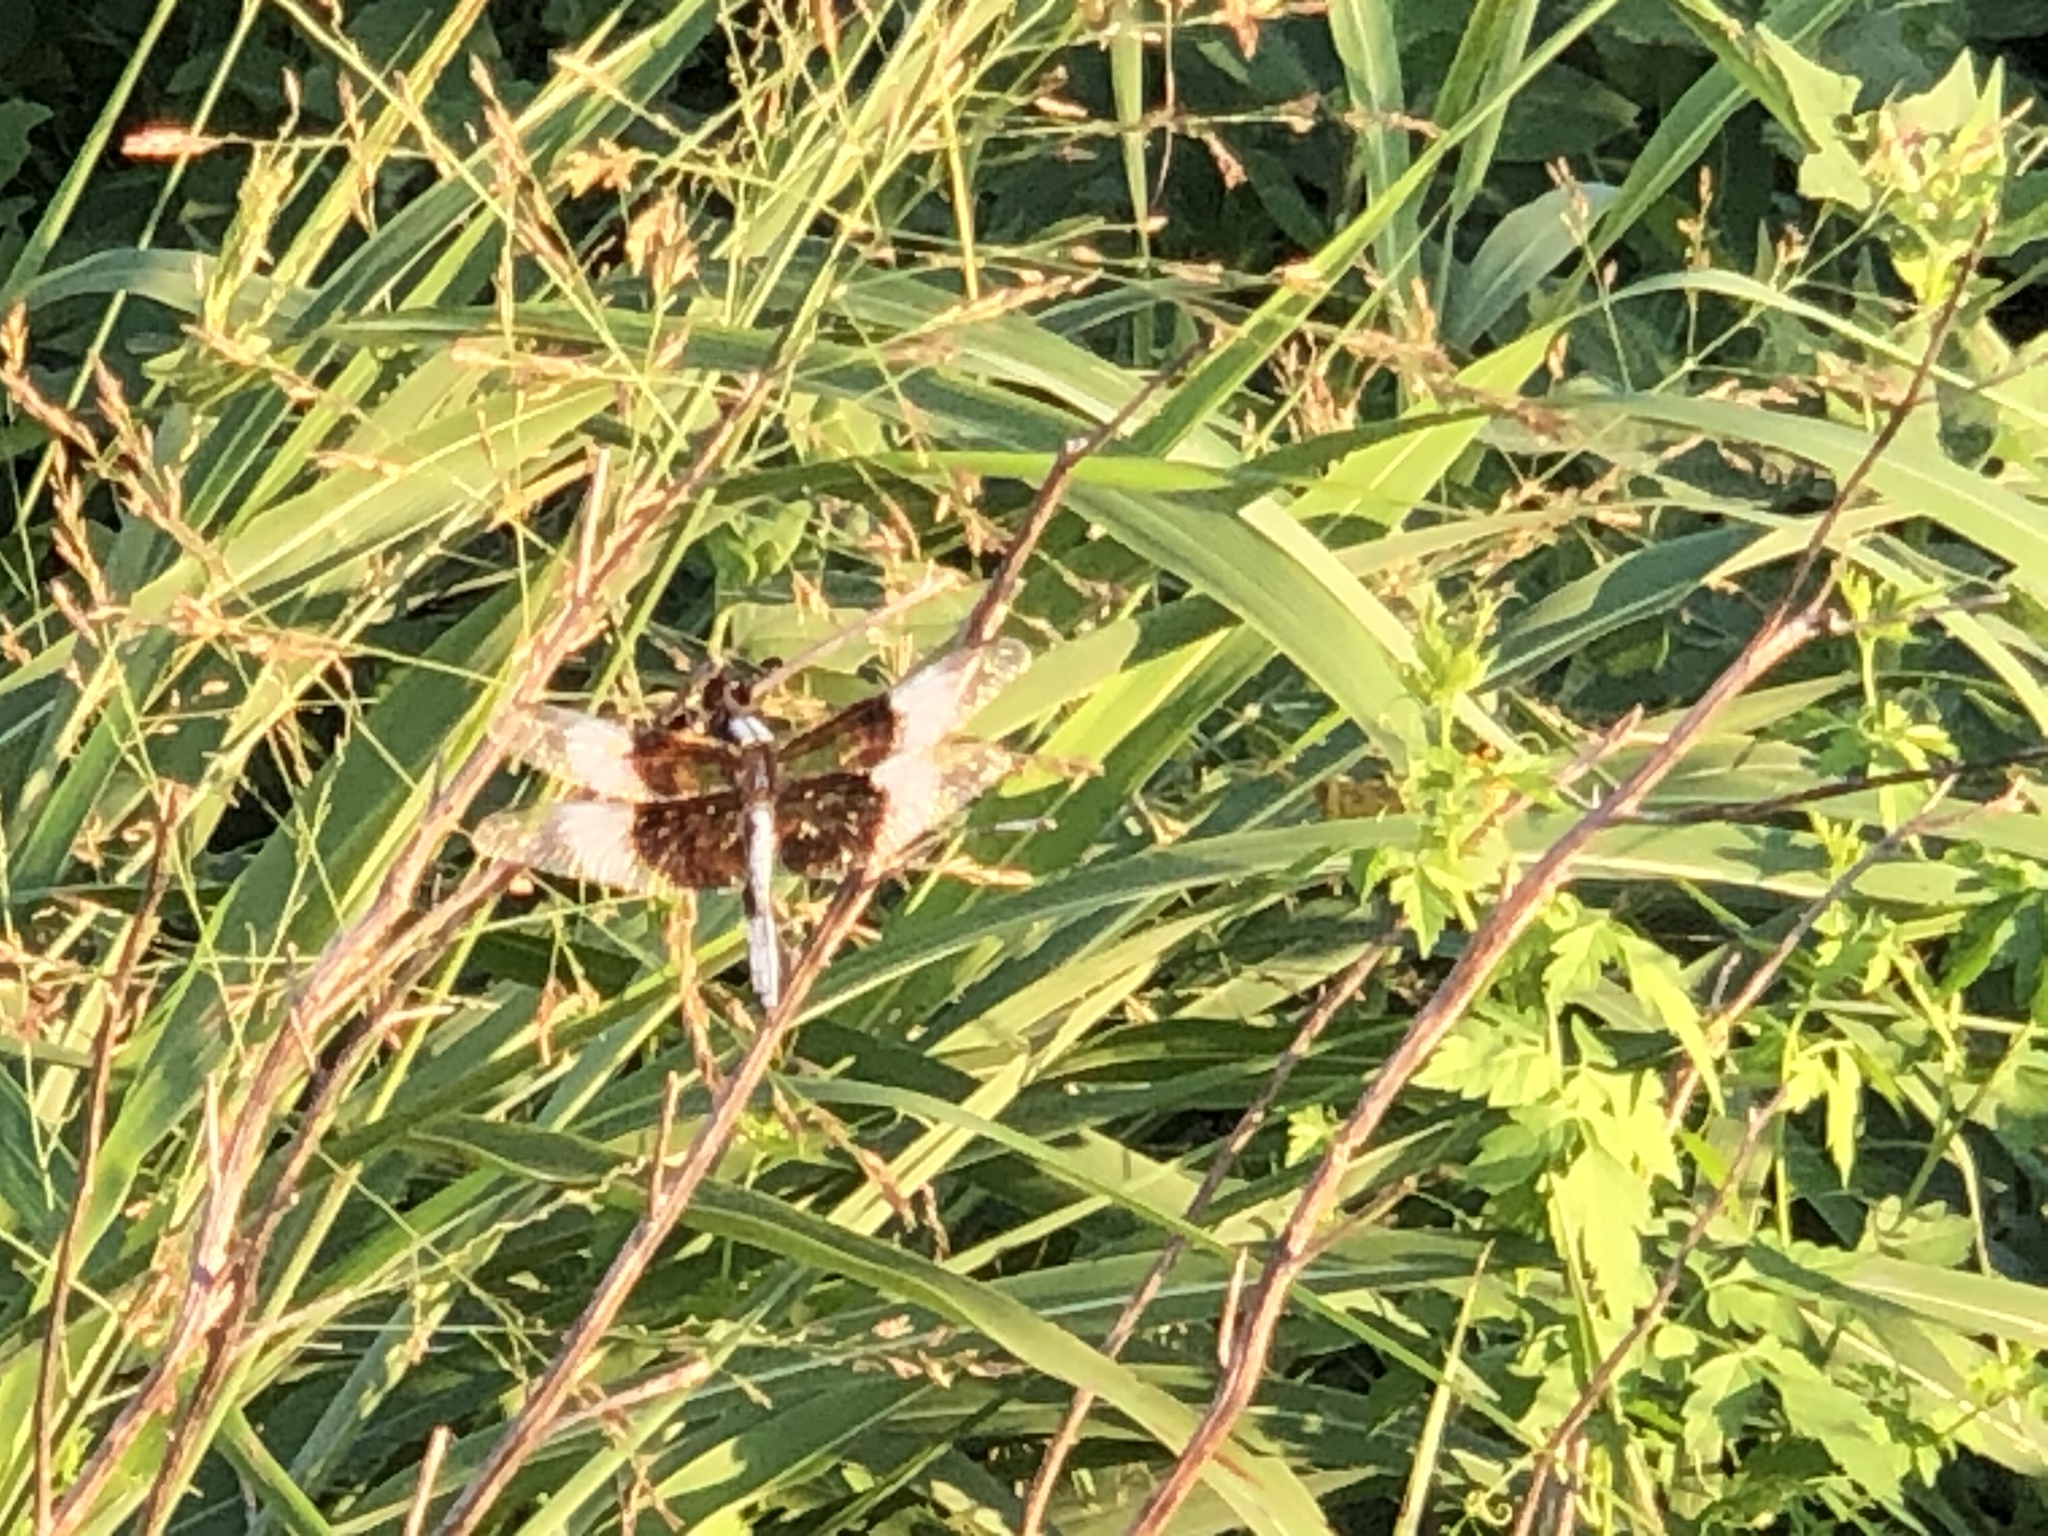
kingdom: Animalia
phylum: Arthropoda
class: Insecta
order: Odonata
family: Libellulidae
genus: Libellula
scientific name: Libellula luctuosa
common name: Widow skimmer
